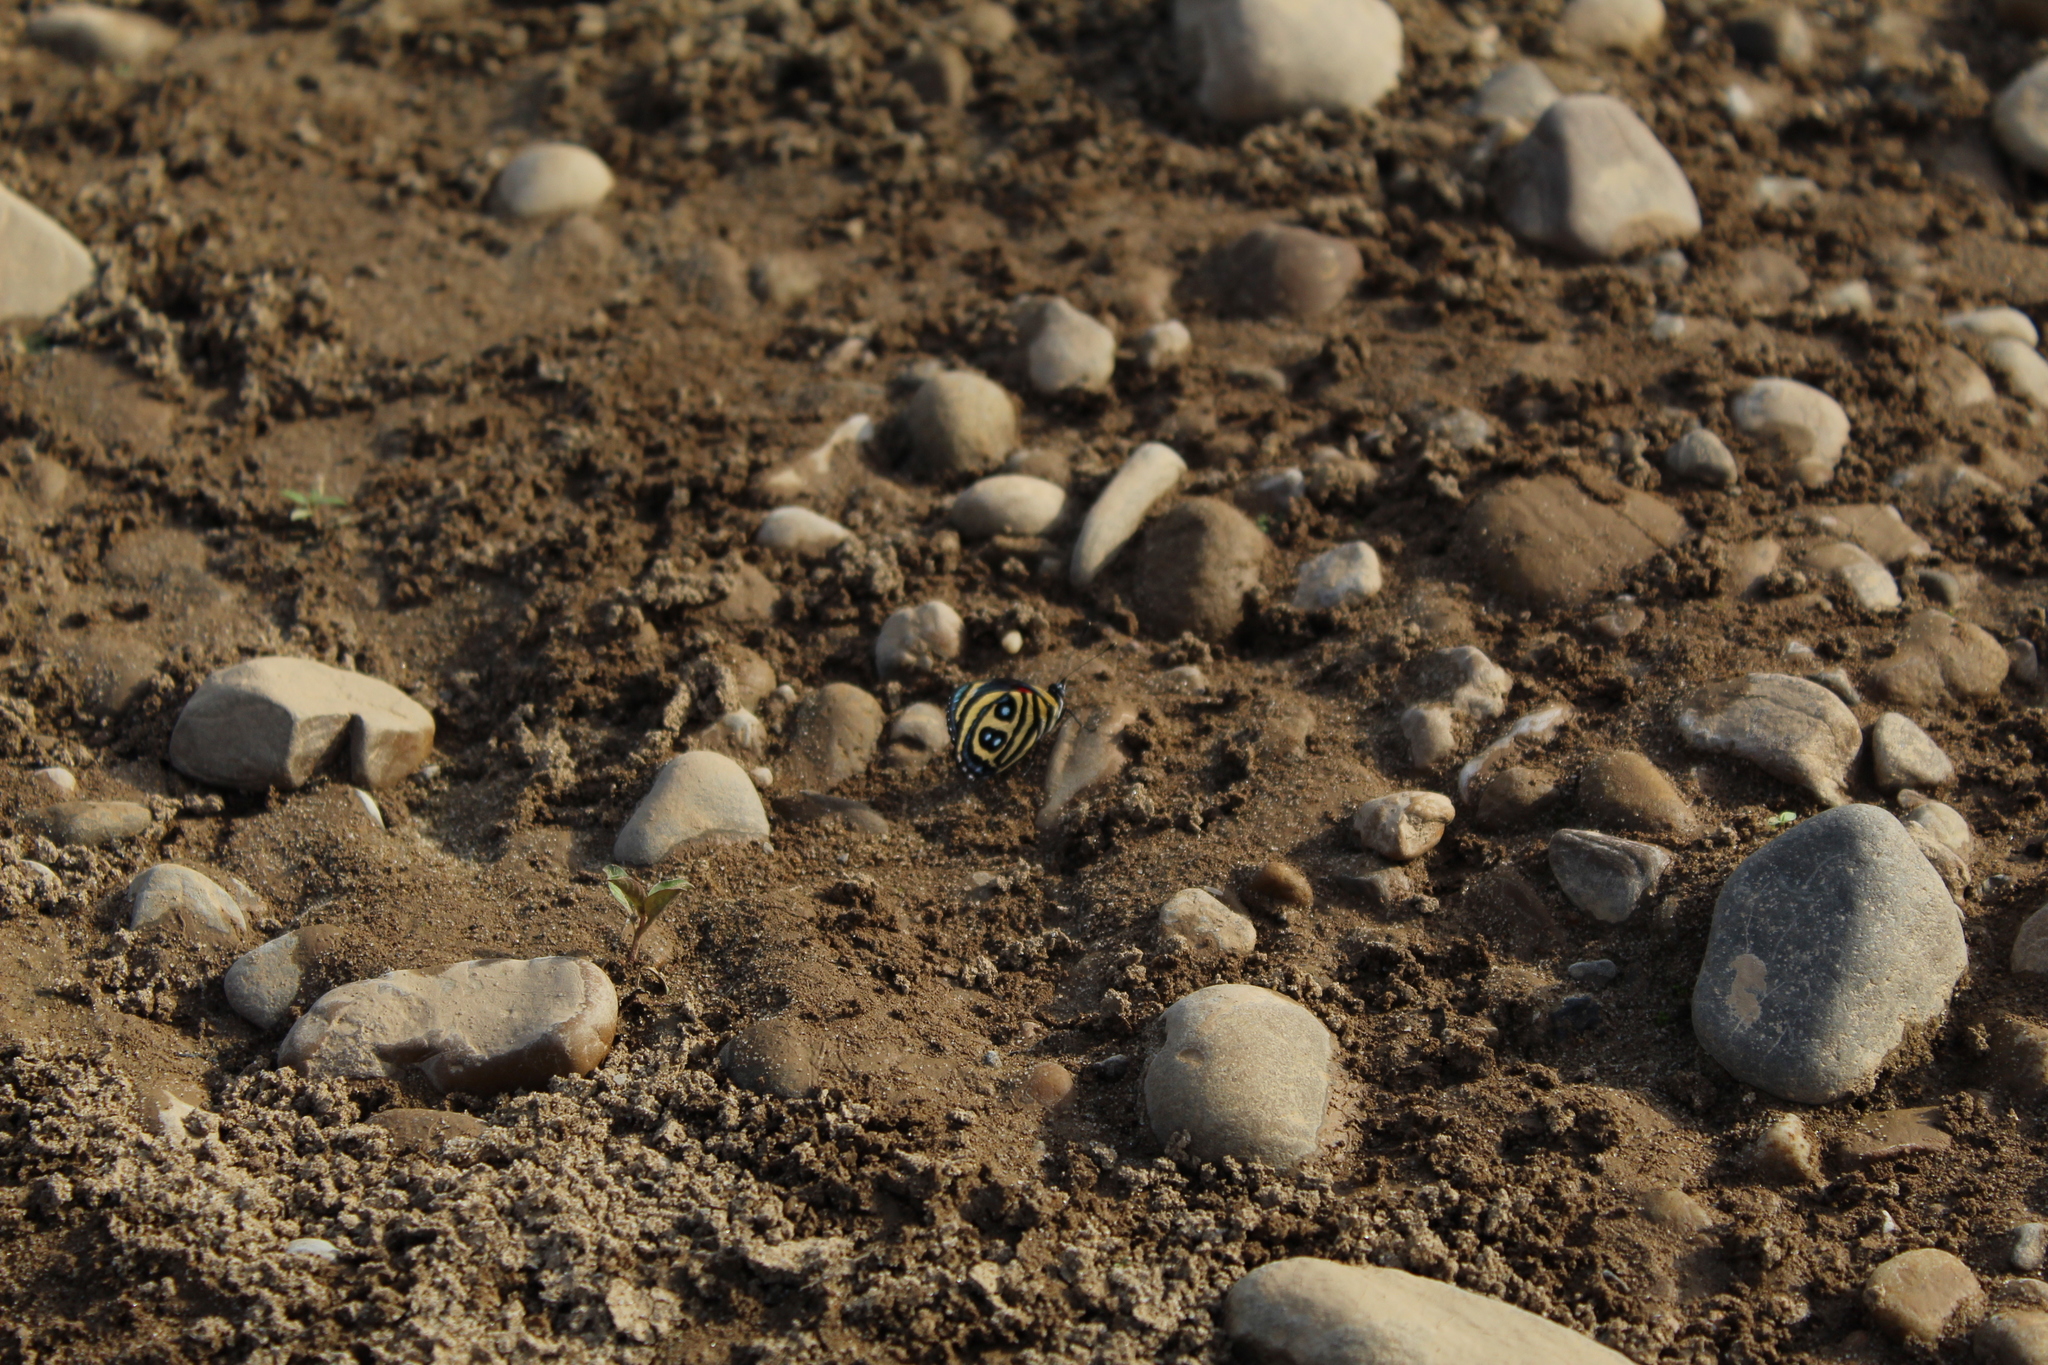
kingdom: Animalia
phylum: Arthropoda
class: Insecta
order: Lepidoptera
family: Nymphalidae
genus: Catagramma
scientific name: Catagramma pyracmon
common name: Google-eyed eighty-eight
